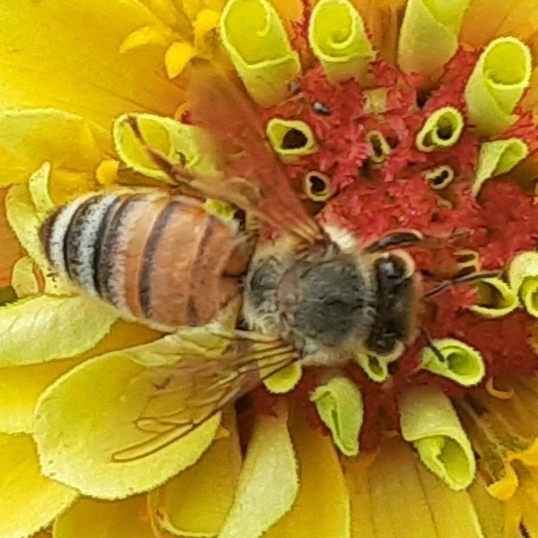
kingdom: Animalia
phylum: Arthropoda
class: Insecta
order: Hymenoptera
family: Apidae
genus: Apis
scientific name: Apis mellifera
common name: Honey bee
